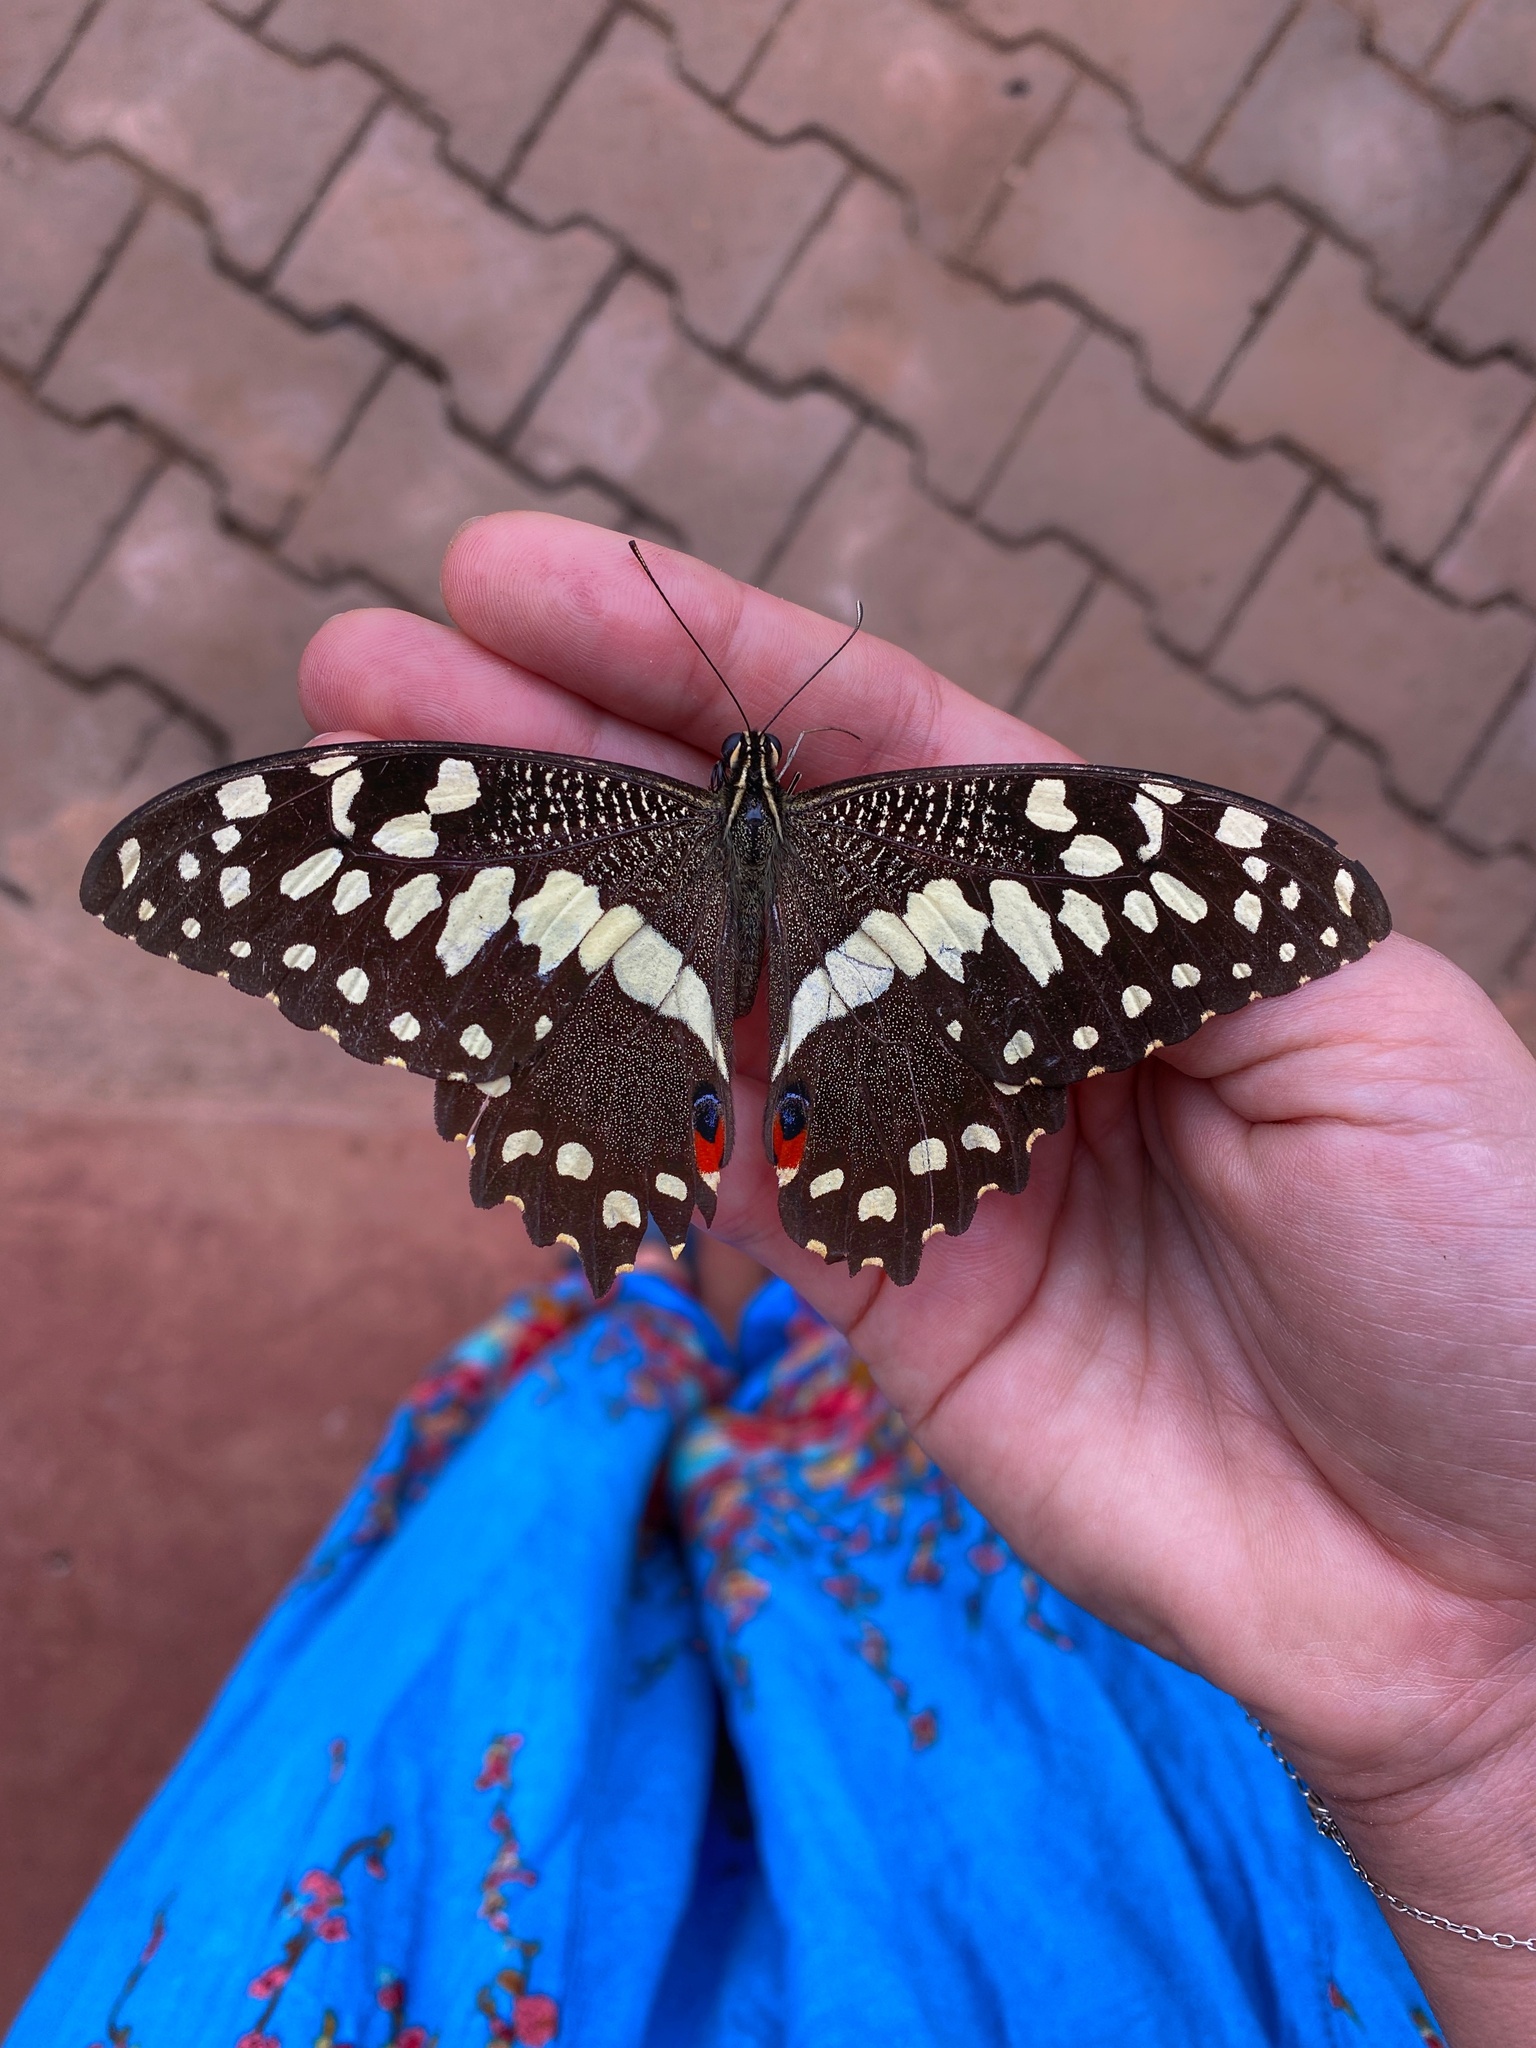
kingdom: Animalia
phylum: Arthropoda
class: Insecta
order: Lepidoptera
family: Papilionidae
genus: Papilio
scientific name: Papilio demodocus
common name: Christmas butterfly
